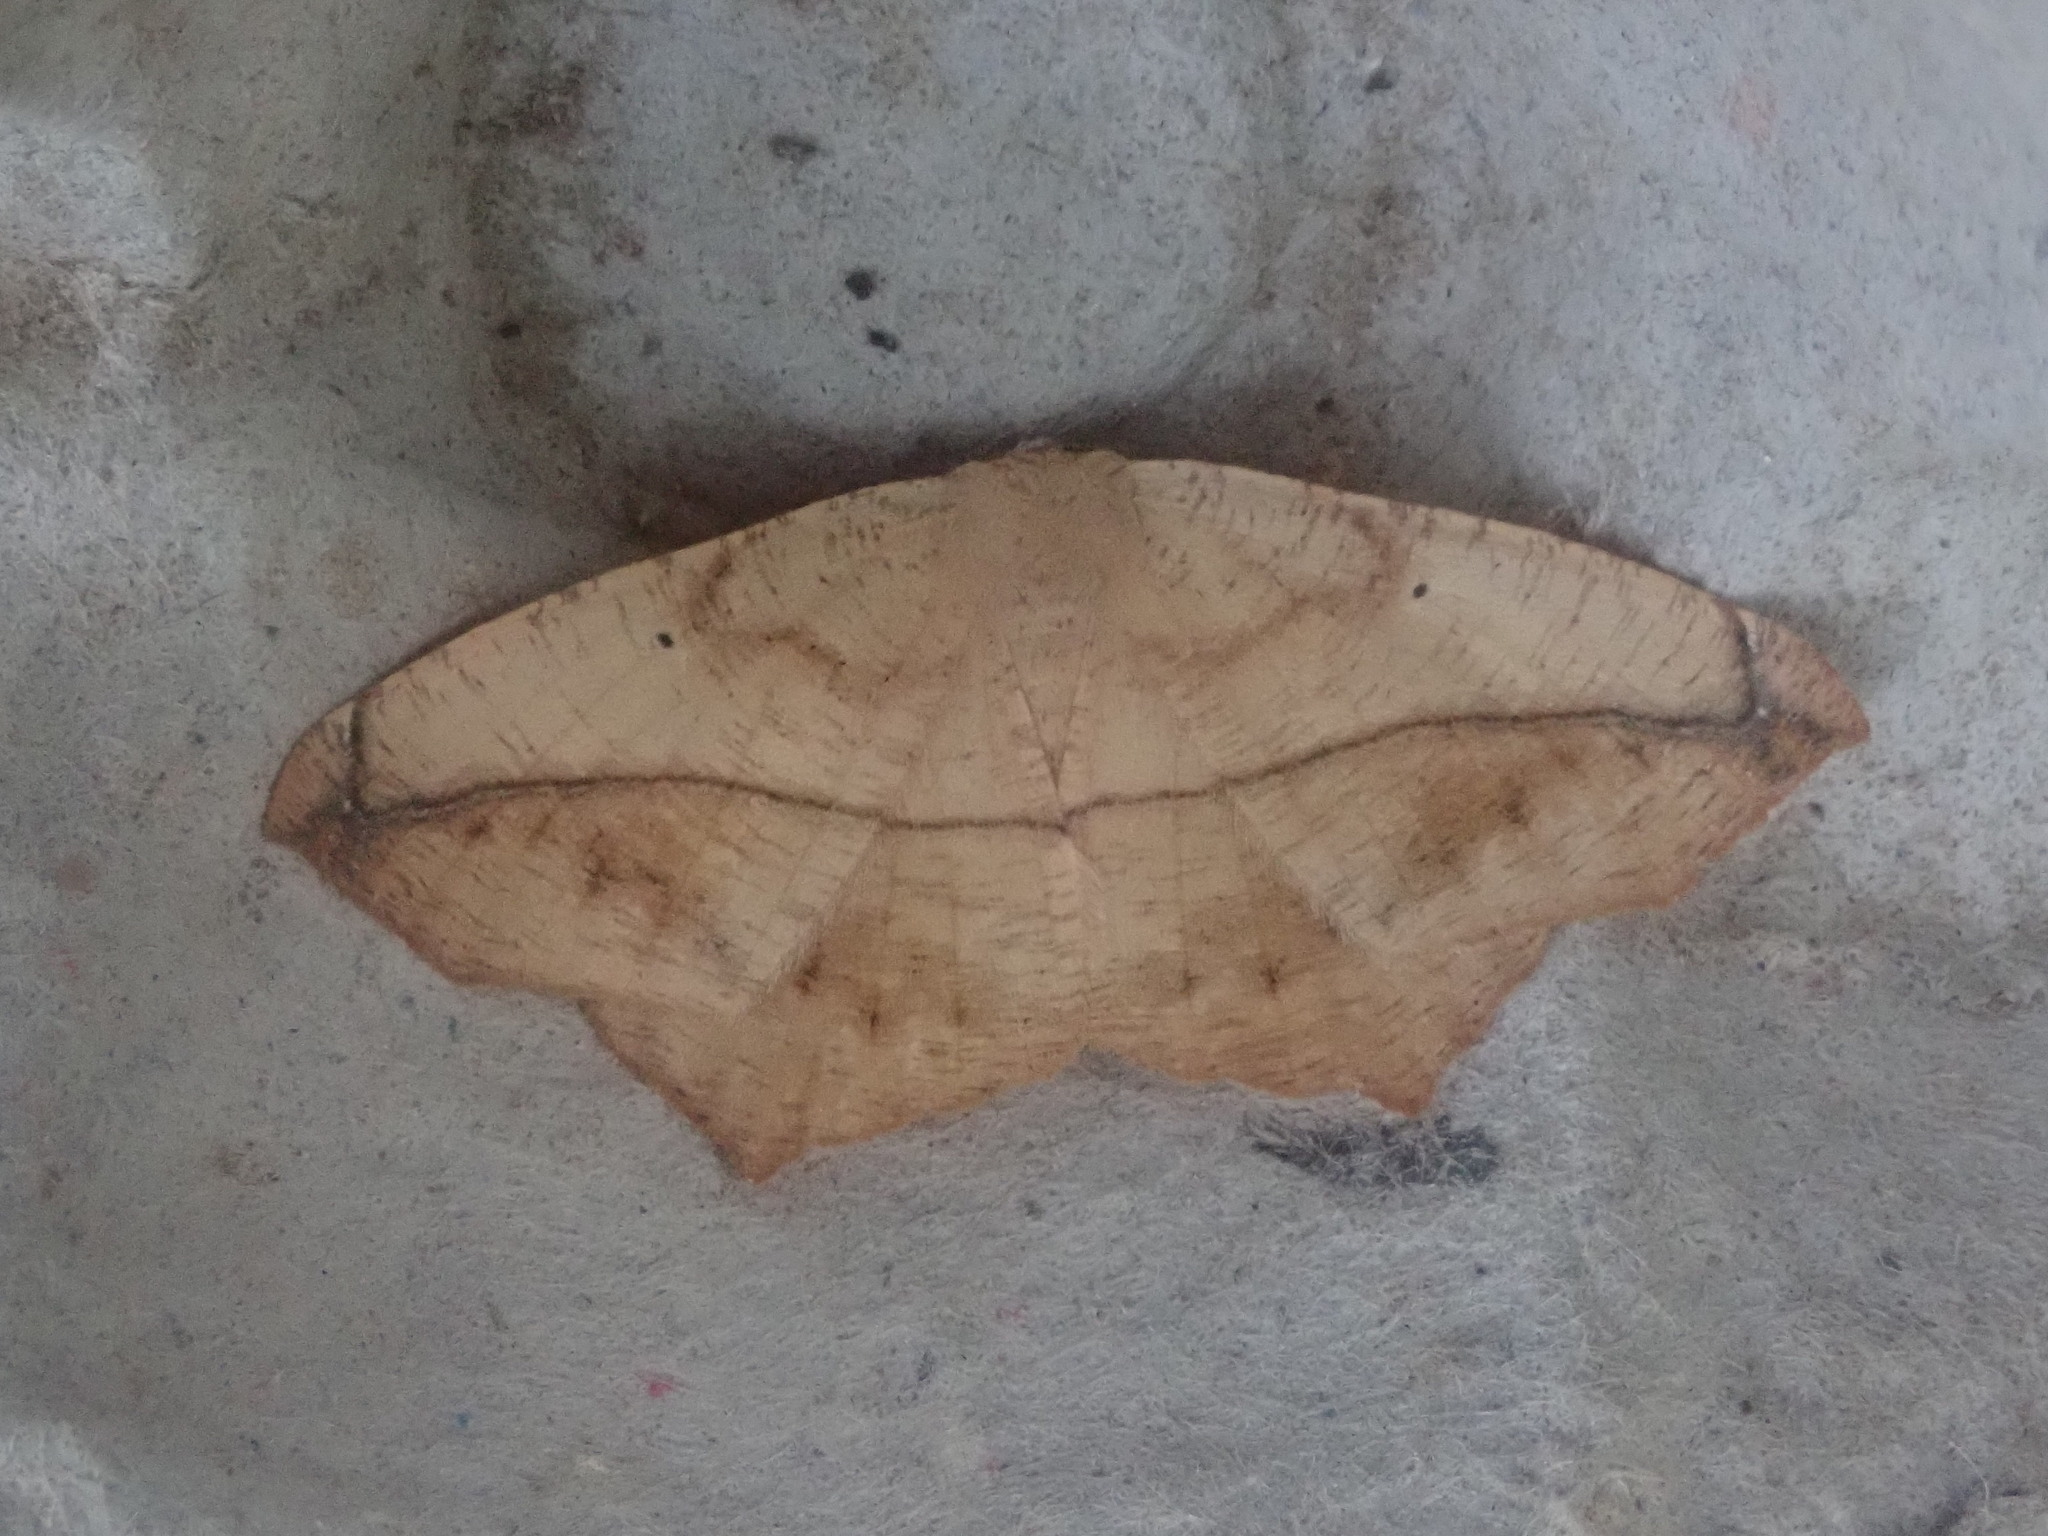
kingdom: Animalia
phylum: Arthropoda
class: Insecta
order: Lepidoptera
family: Geometridae
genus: Prochoerodes
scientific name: Prochoerodes lineola
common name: Large maple spanworm
